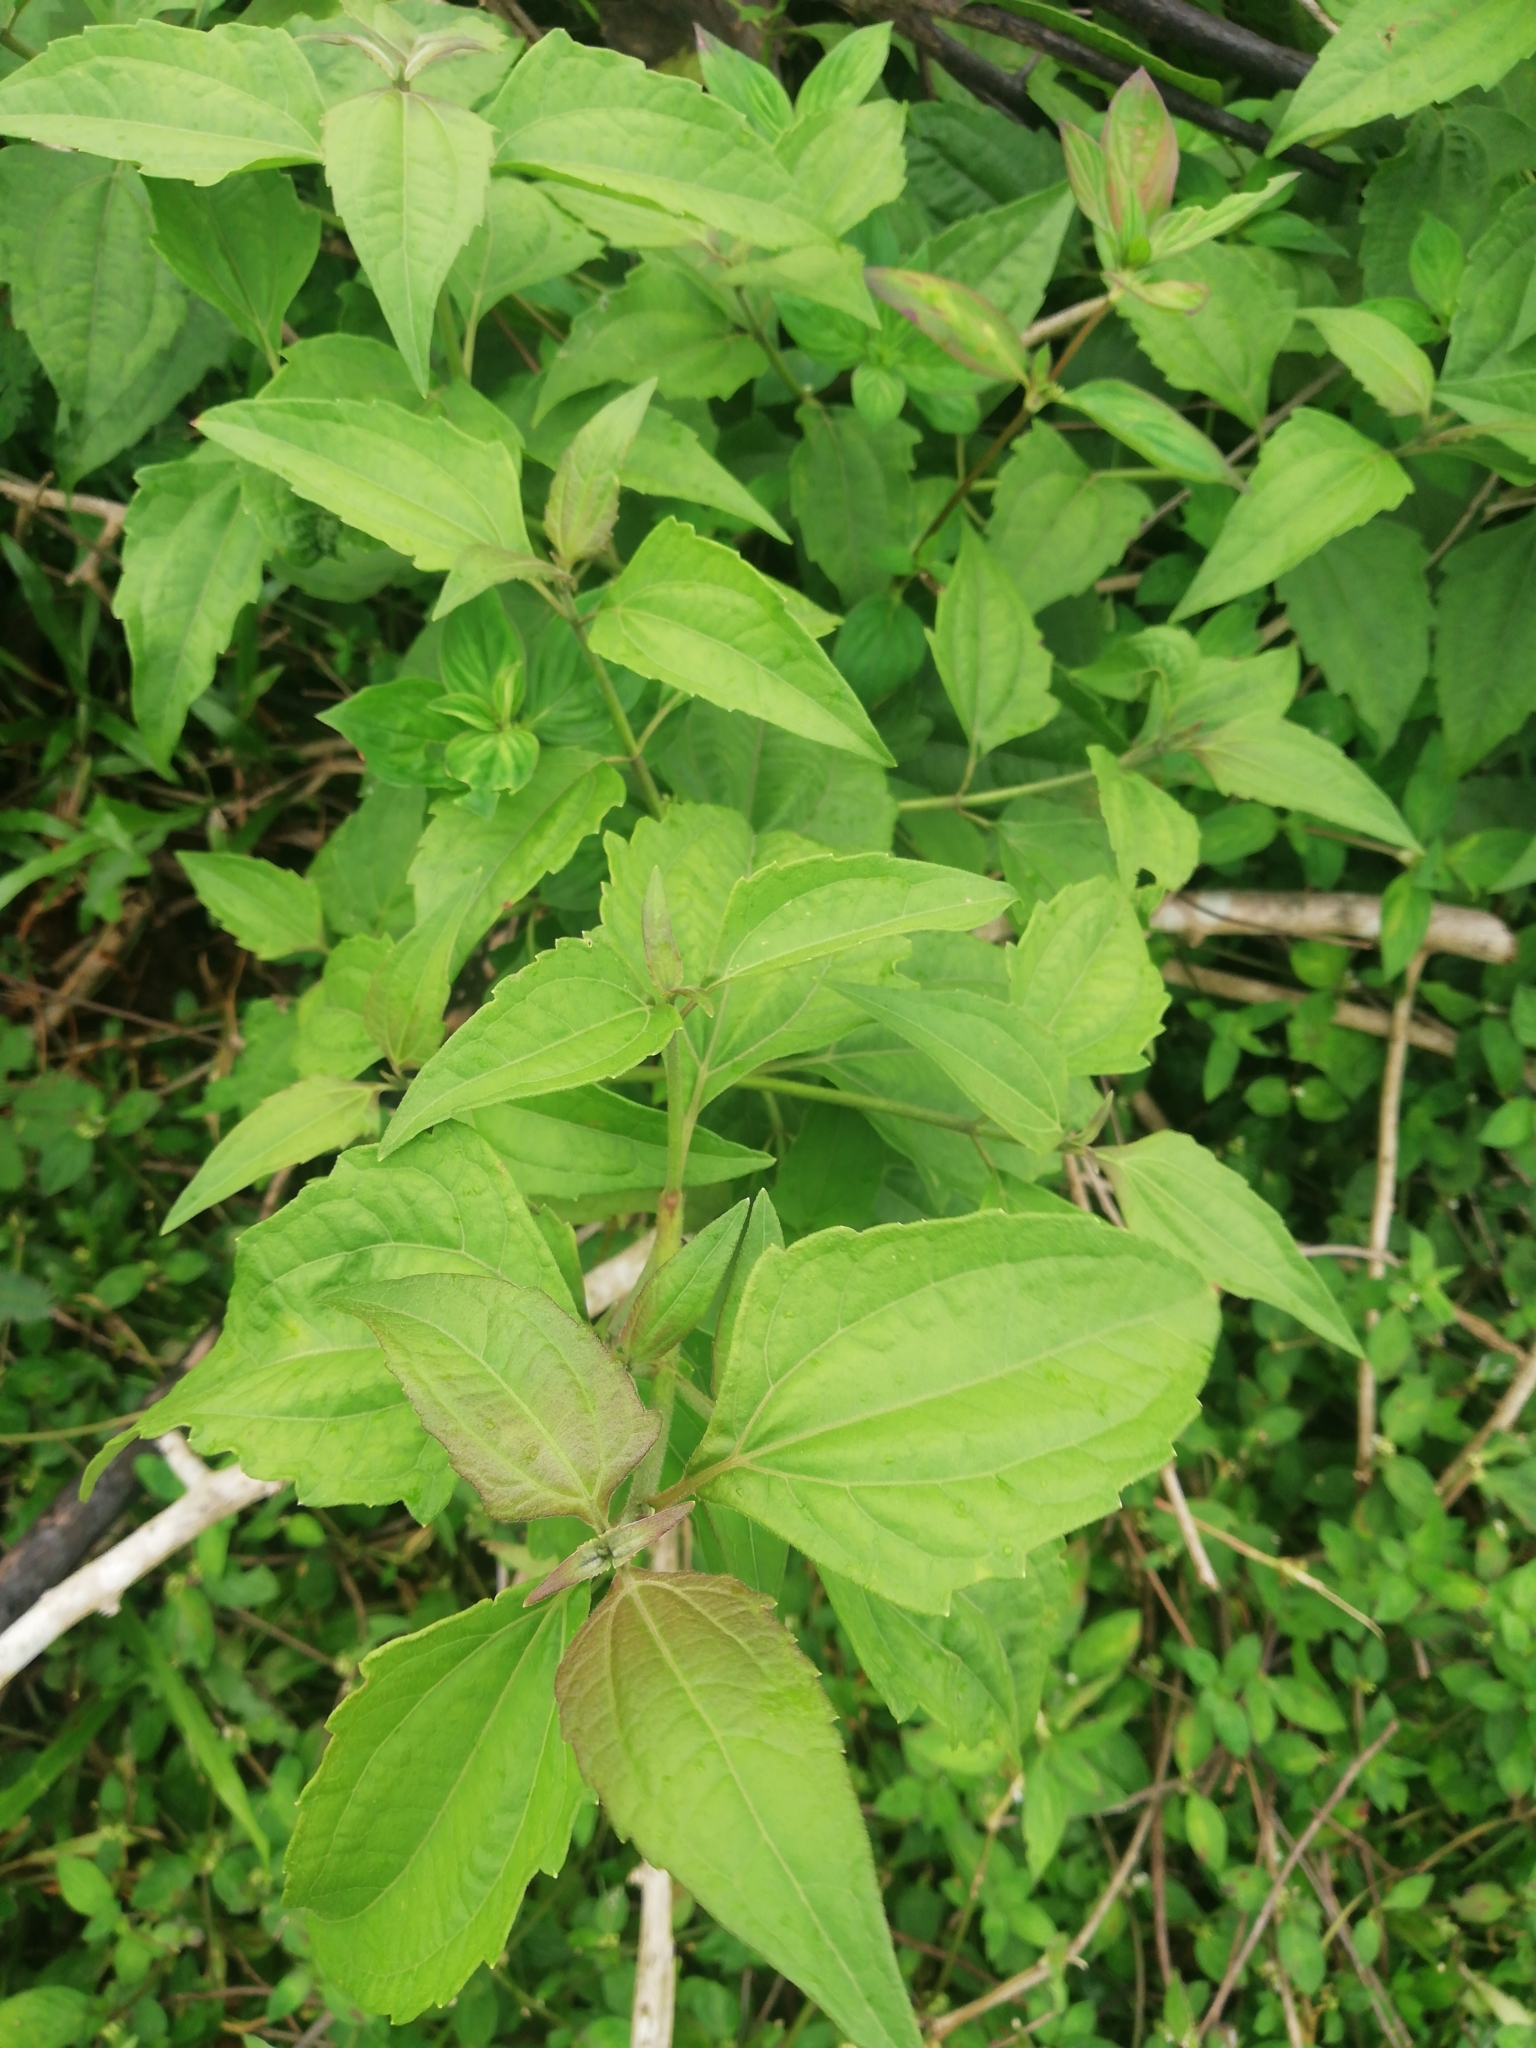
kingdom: Plantae
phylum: Tracheophyta
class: Magnoliopsida
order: Asterales
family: Asteraceae
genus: Chromolaena
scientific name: Chromolaena odorata
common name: Siamweed
